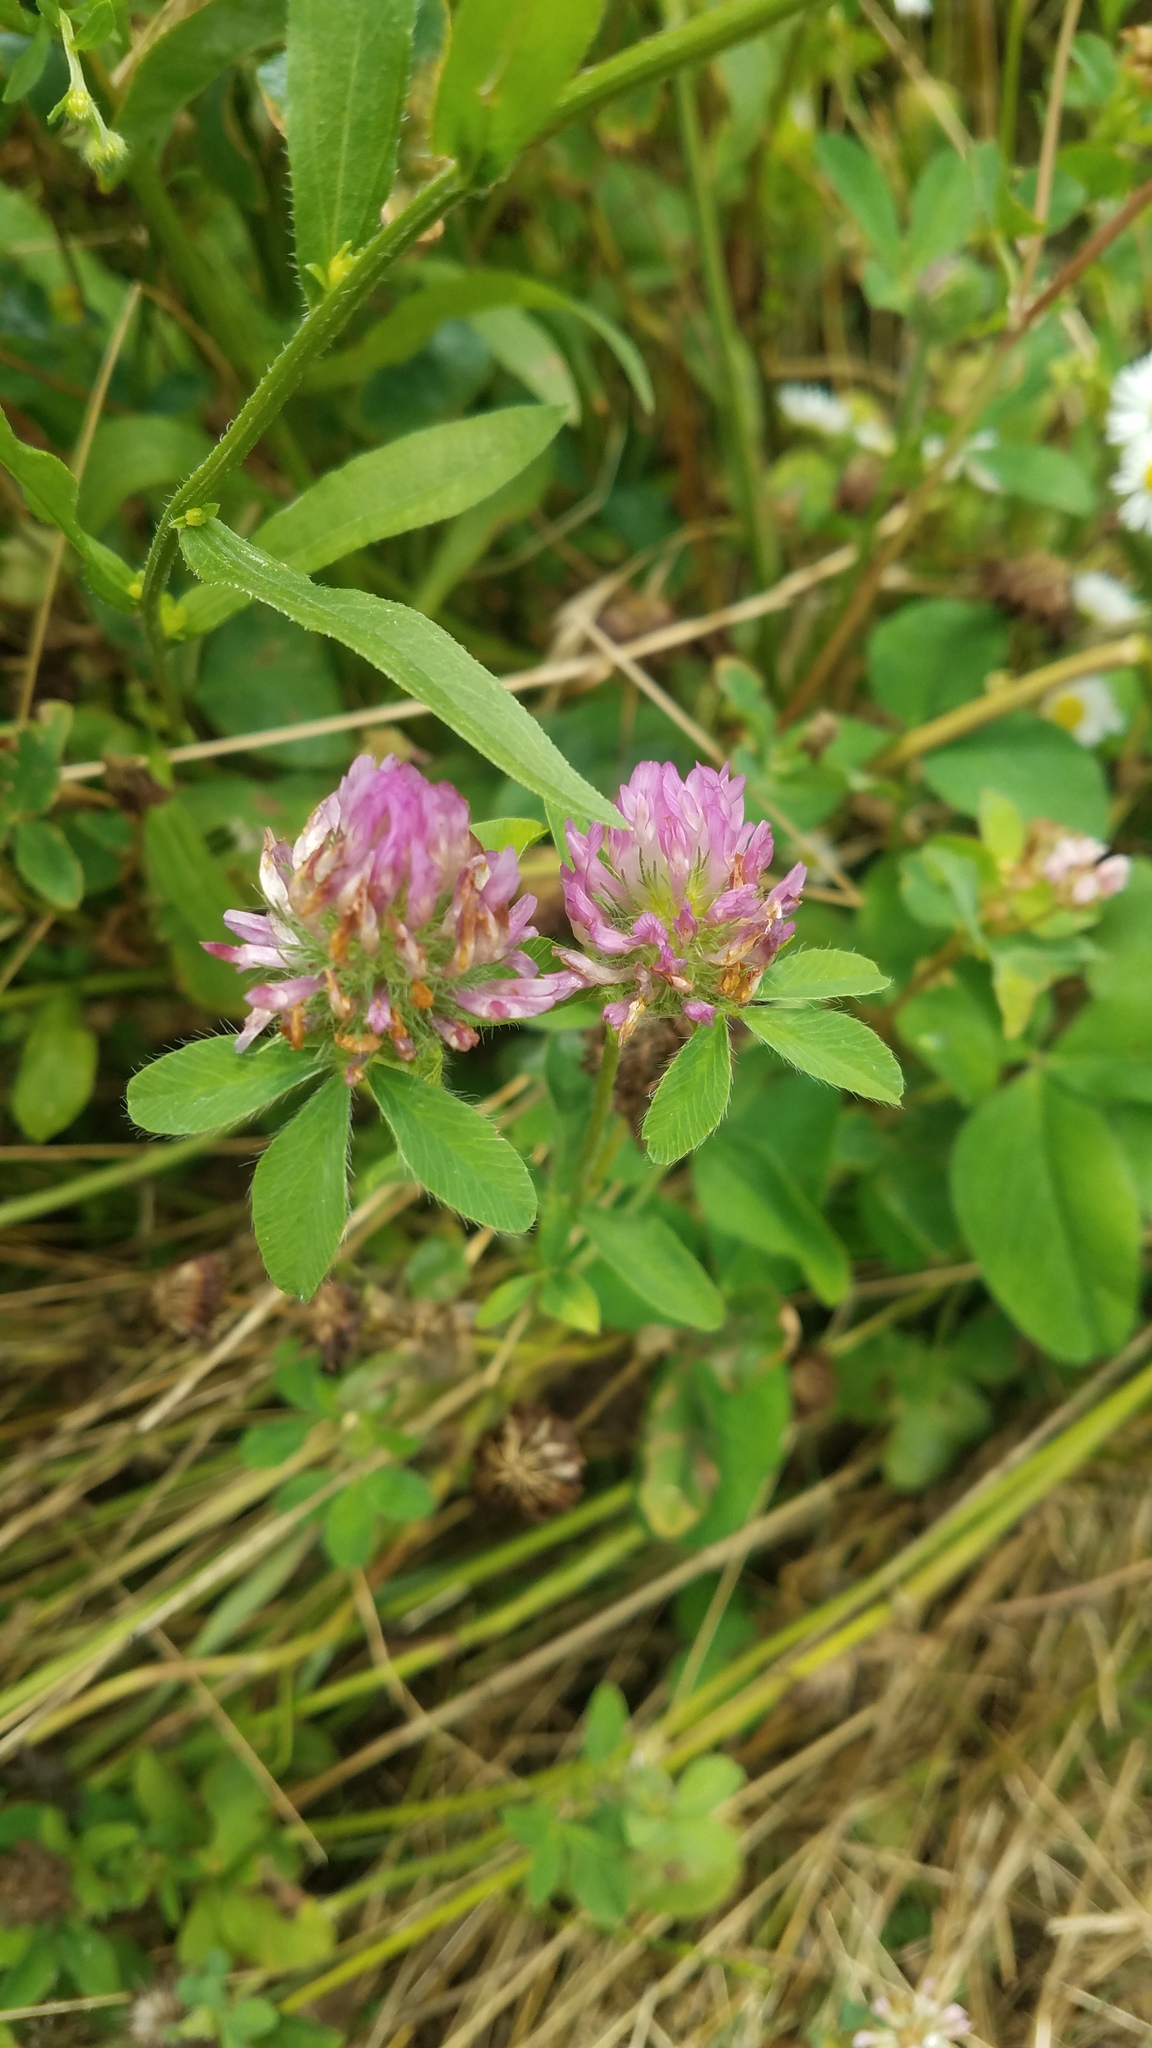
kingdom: Plantae
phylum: Tracheophyta
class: Magnoliopsida
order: Fabales
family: Fabaceae
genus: Trifolium
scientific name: Trifolium pratense
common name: Red clover
